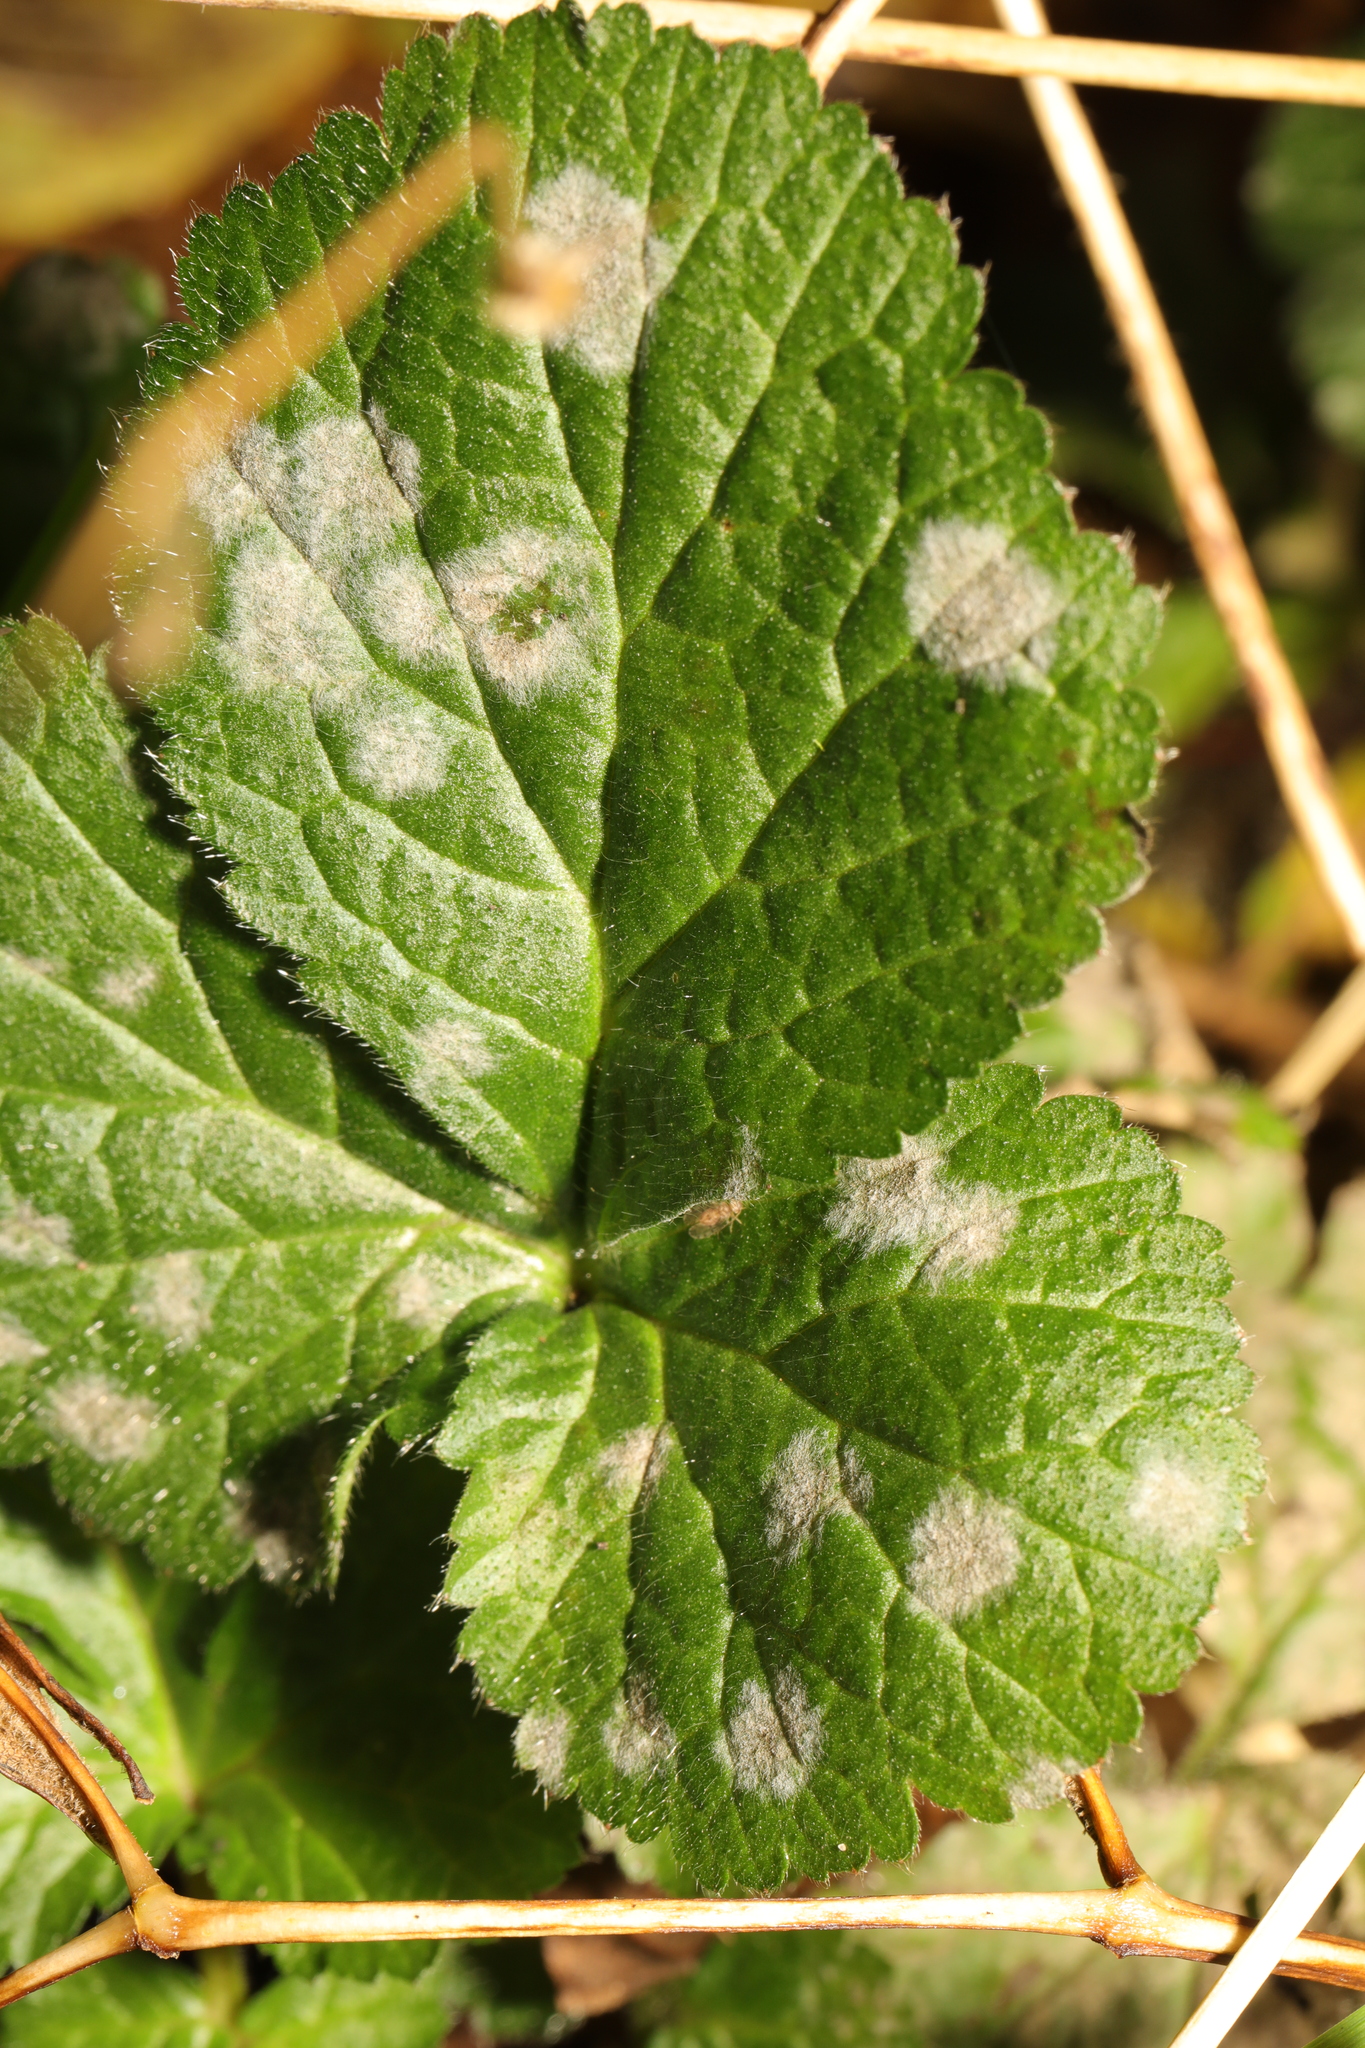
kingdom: Fungi
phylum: Ascomycota
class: Leotiomycetes
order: Helotiales
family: Erysiphaceae
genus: Podosphaera
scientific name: Podosphaera aphanis
